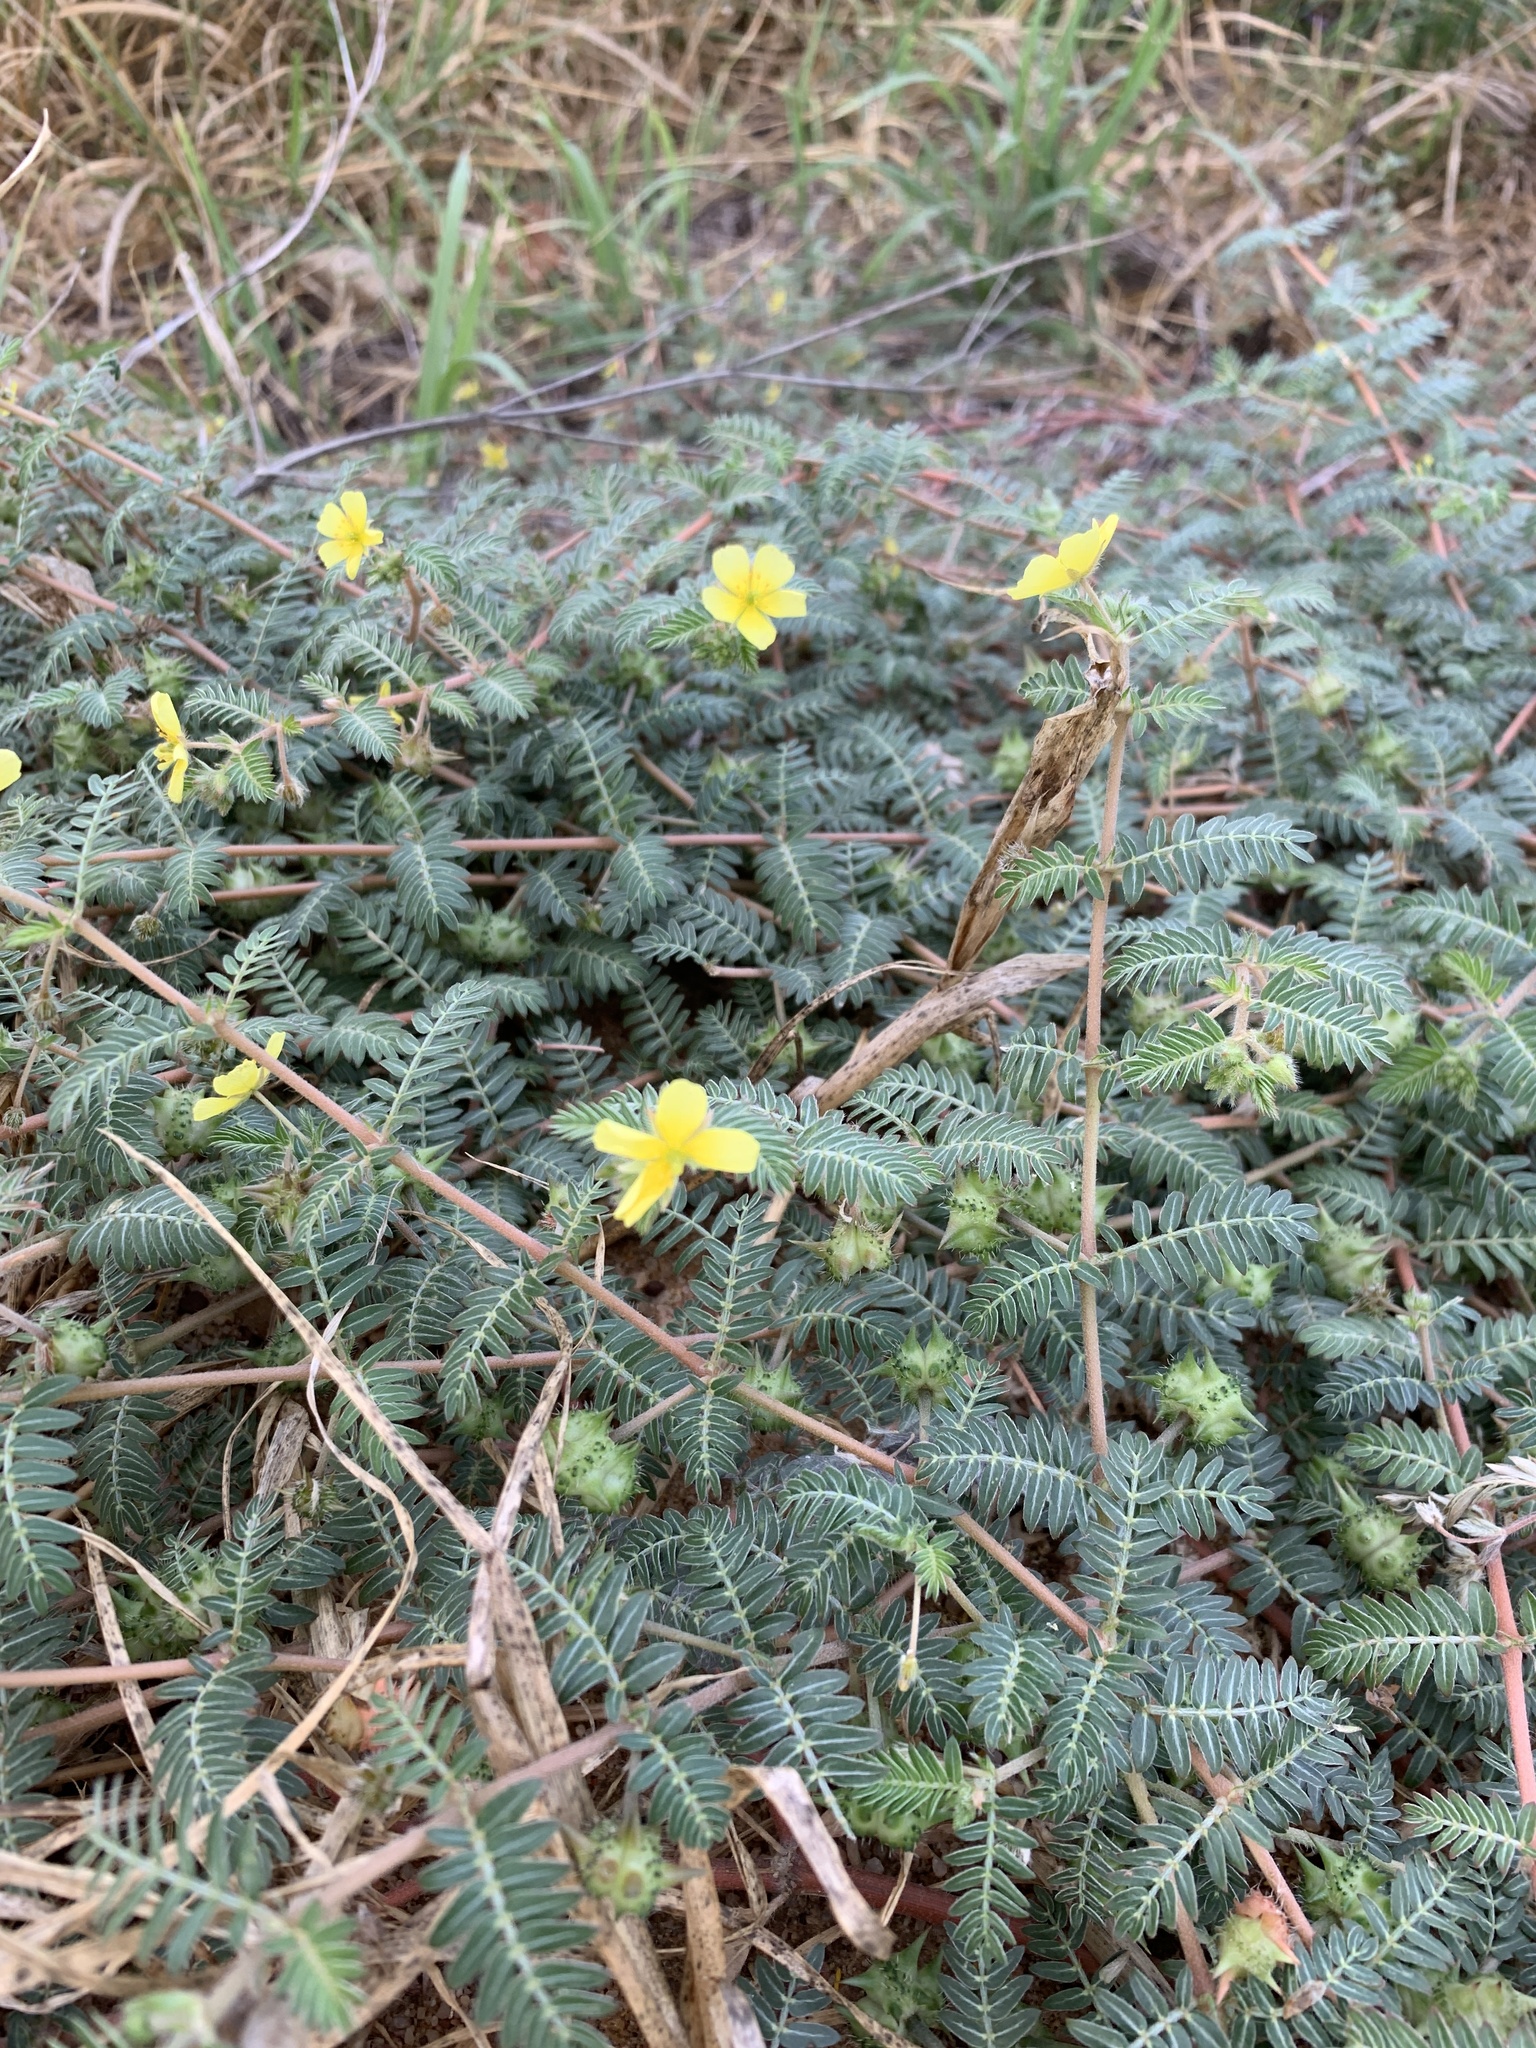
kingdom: Plantae
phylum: Tracheophyta
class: Magnoliopsida
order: Zygophyllales
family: Zygophyllaceae
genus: Tribulus
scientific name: Tribulus terrestris
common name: Puncturevine
